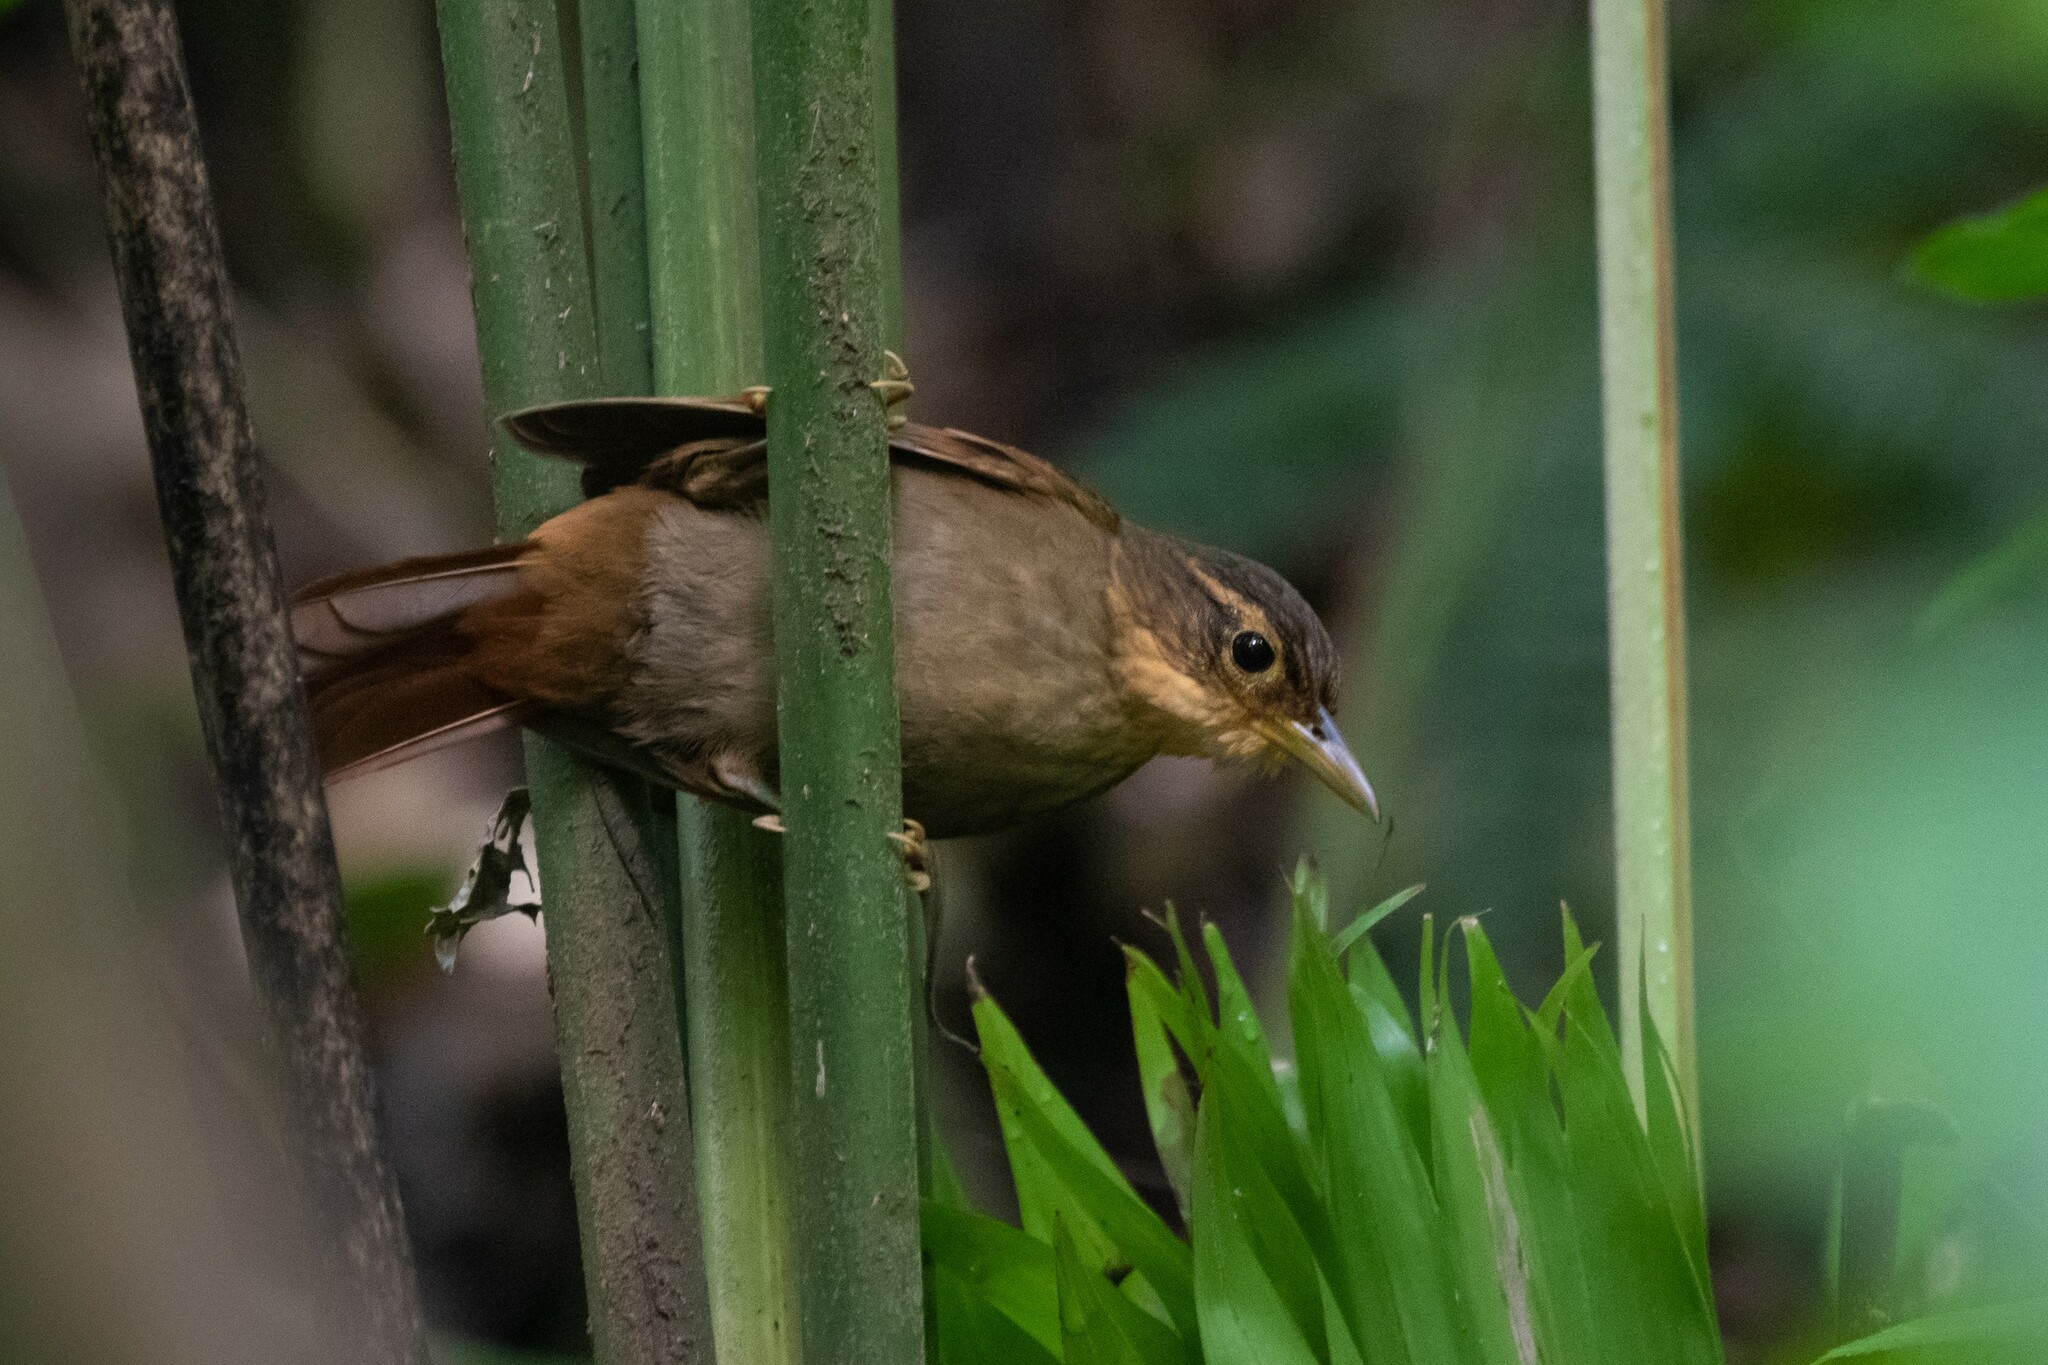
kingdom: Animalia
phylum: Chordata
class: Aves
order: Passeriformes
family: Furnariidae
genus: Automolus
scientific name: Automolus ochrolaemus
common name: Buff-throated foliage-gleaner
